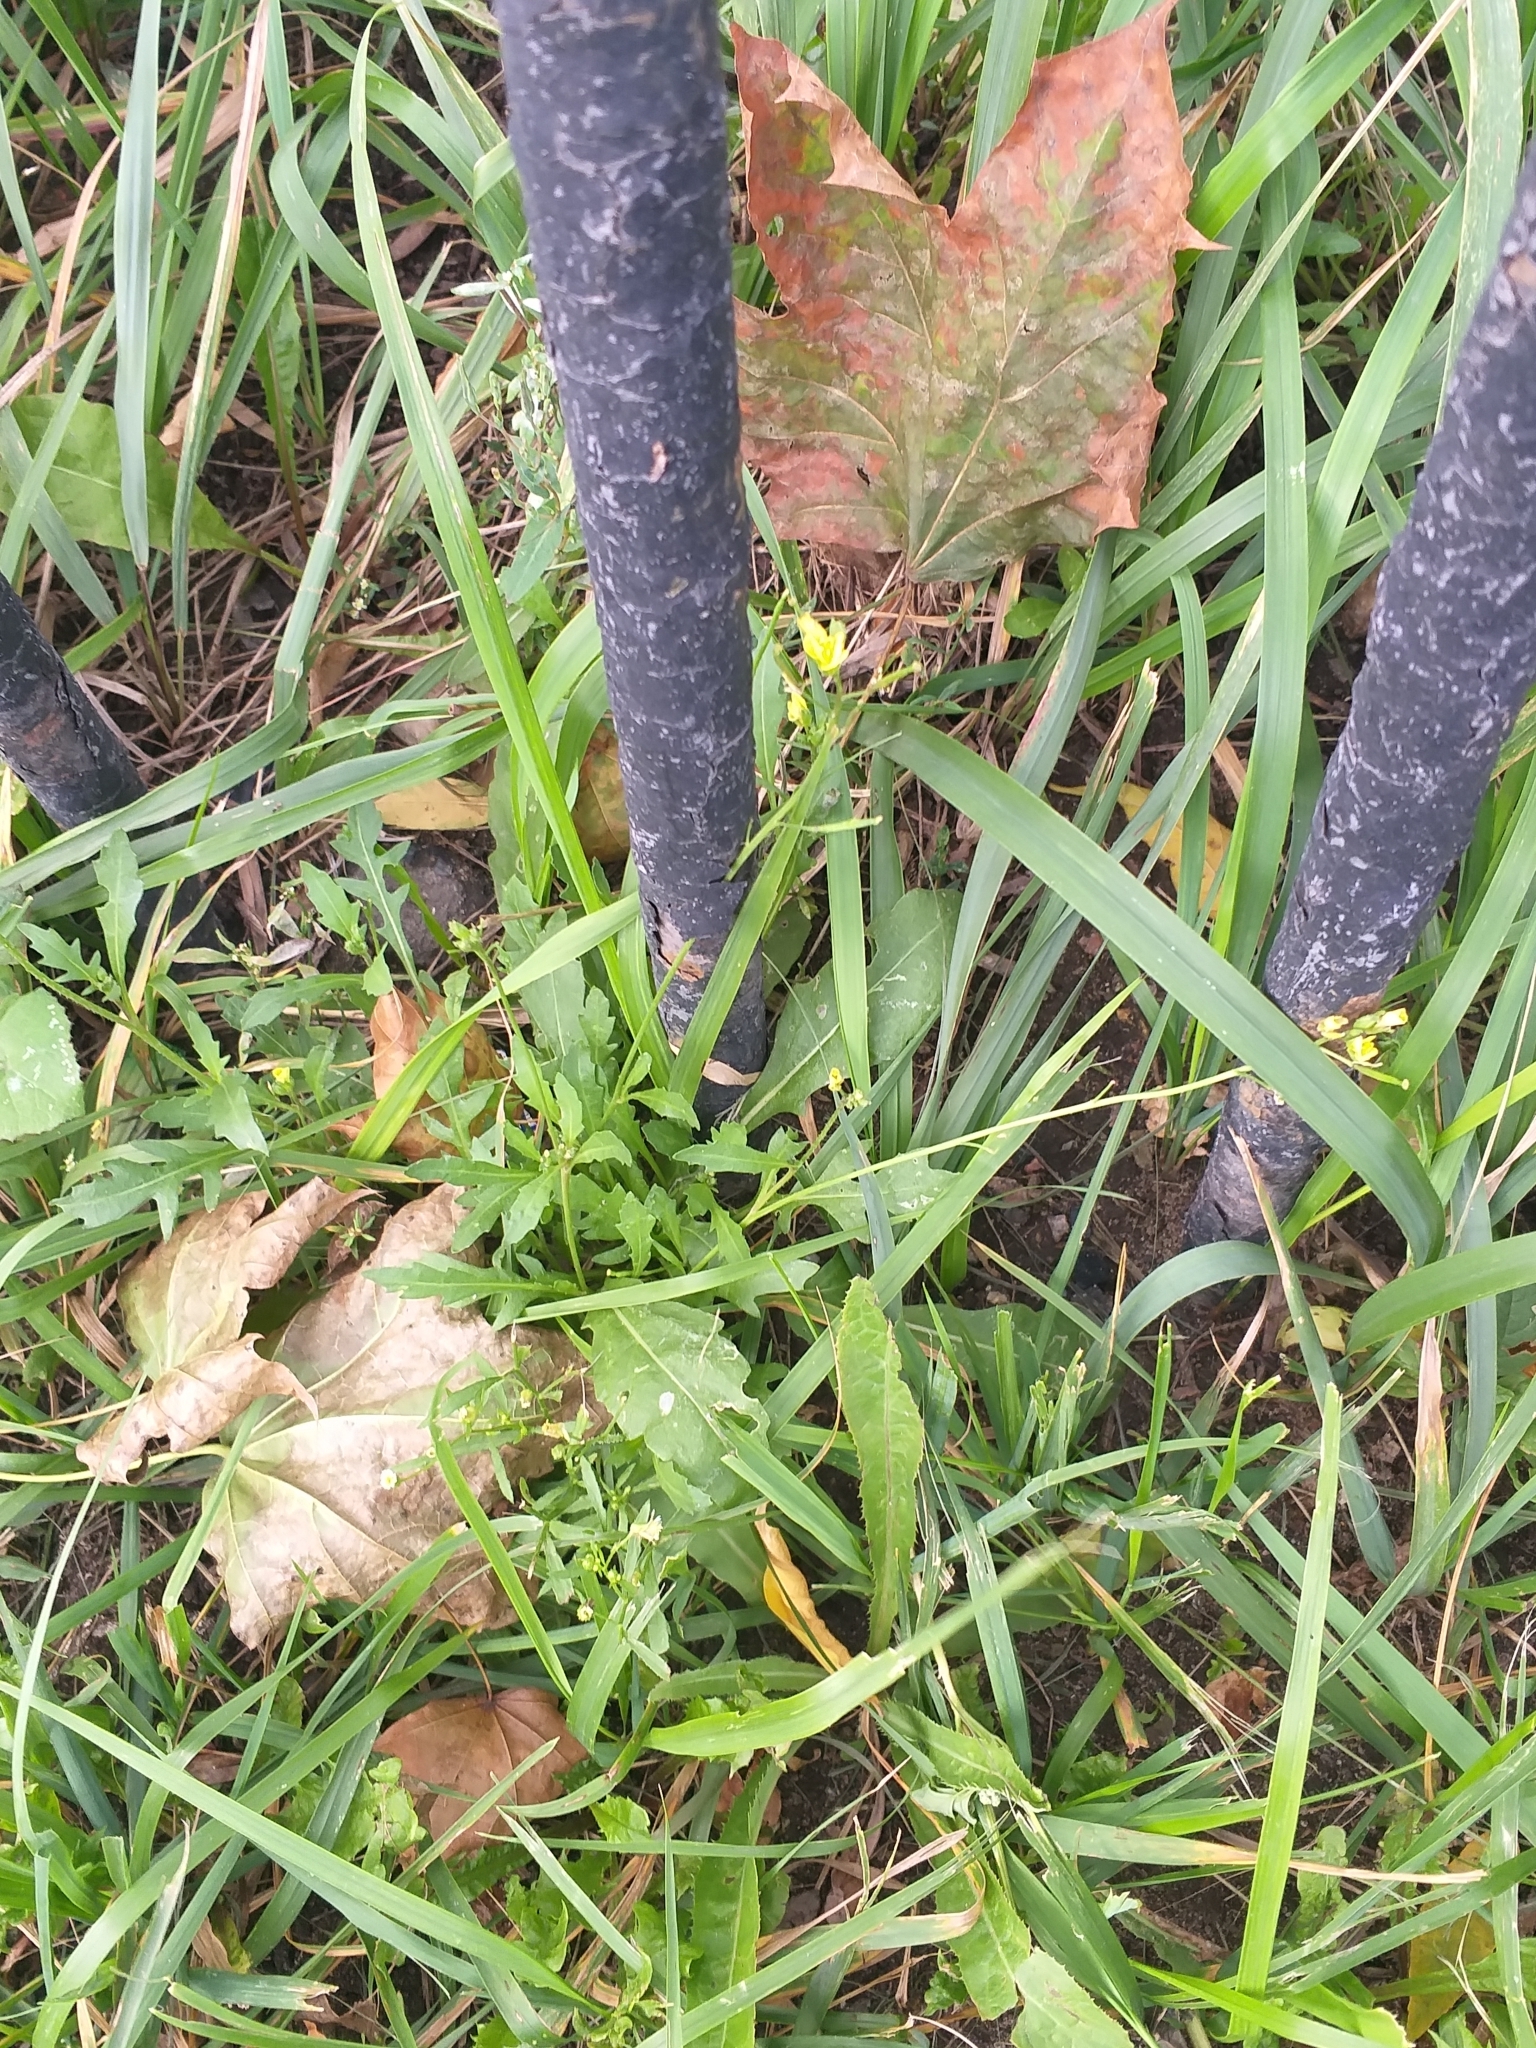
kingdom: Plantae
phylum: Tracheophyta
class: Magnoliopsida
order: Brassicales
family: Brassicaceae
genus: Diplotaxis
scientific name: Diplotaxis tenuifolia
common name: Perennial wall-rocket
